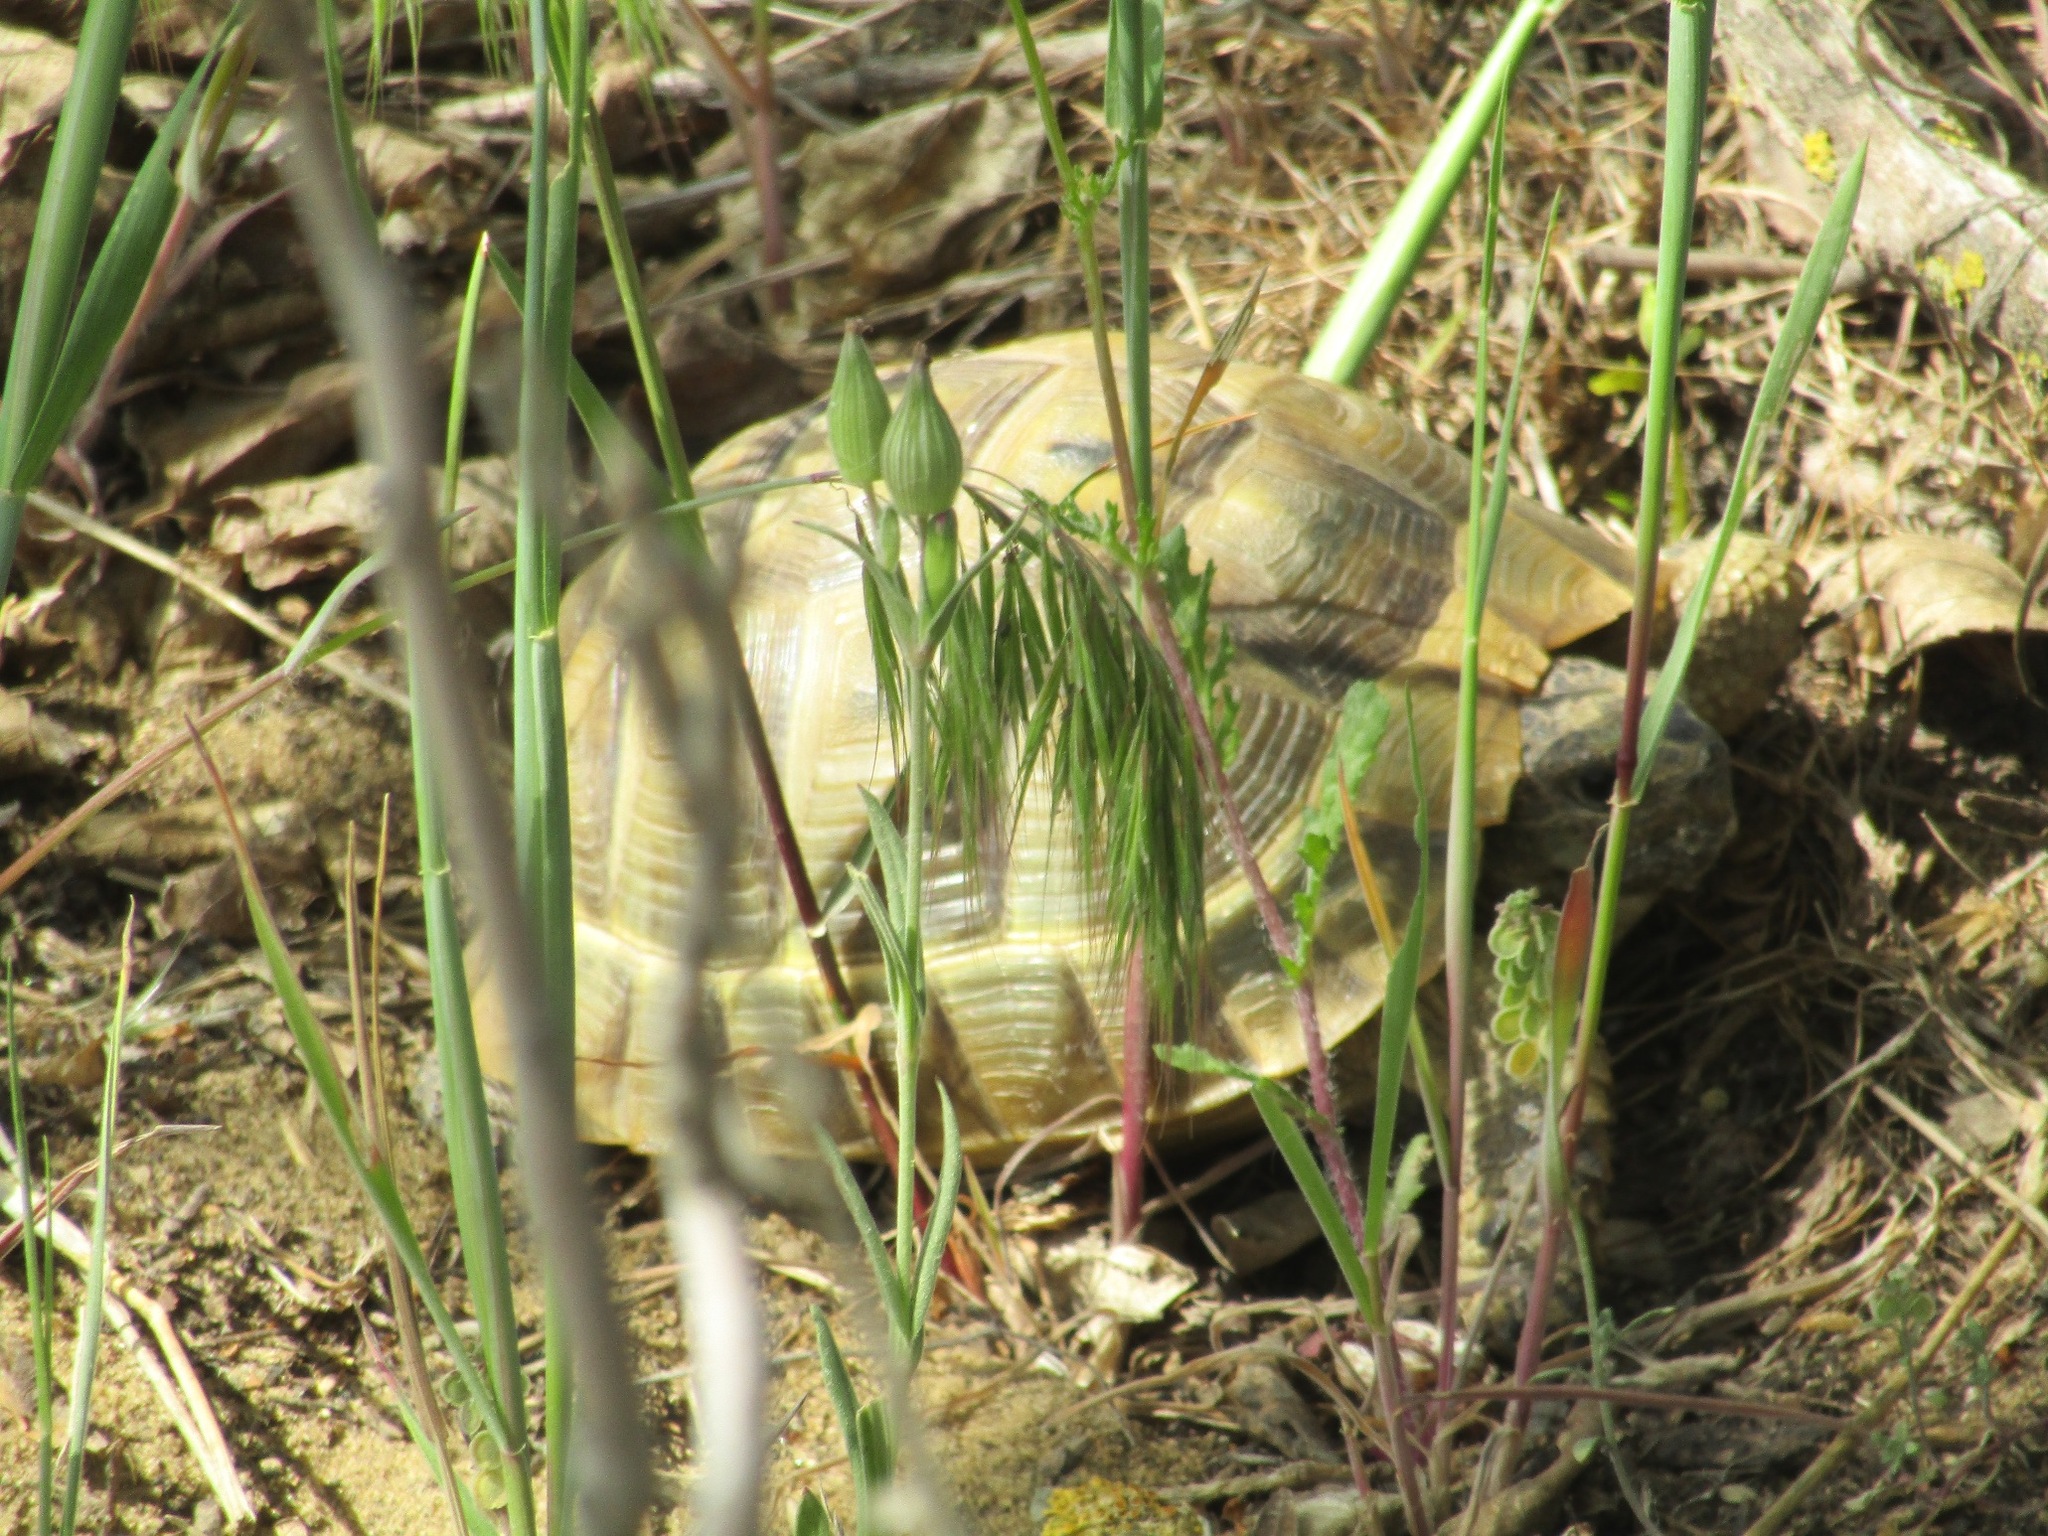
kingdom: Animalia
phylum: Chordata
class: Testudines
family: Testudinidae
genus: Testudo
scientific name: Testudo graeca
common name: Common tortoise
